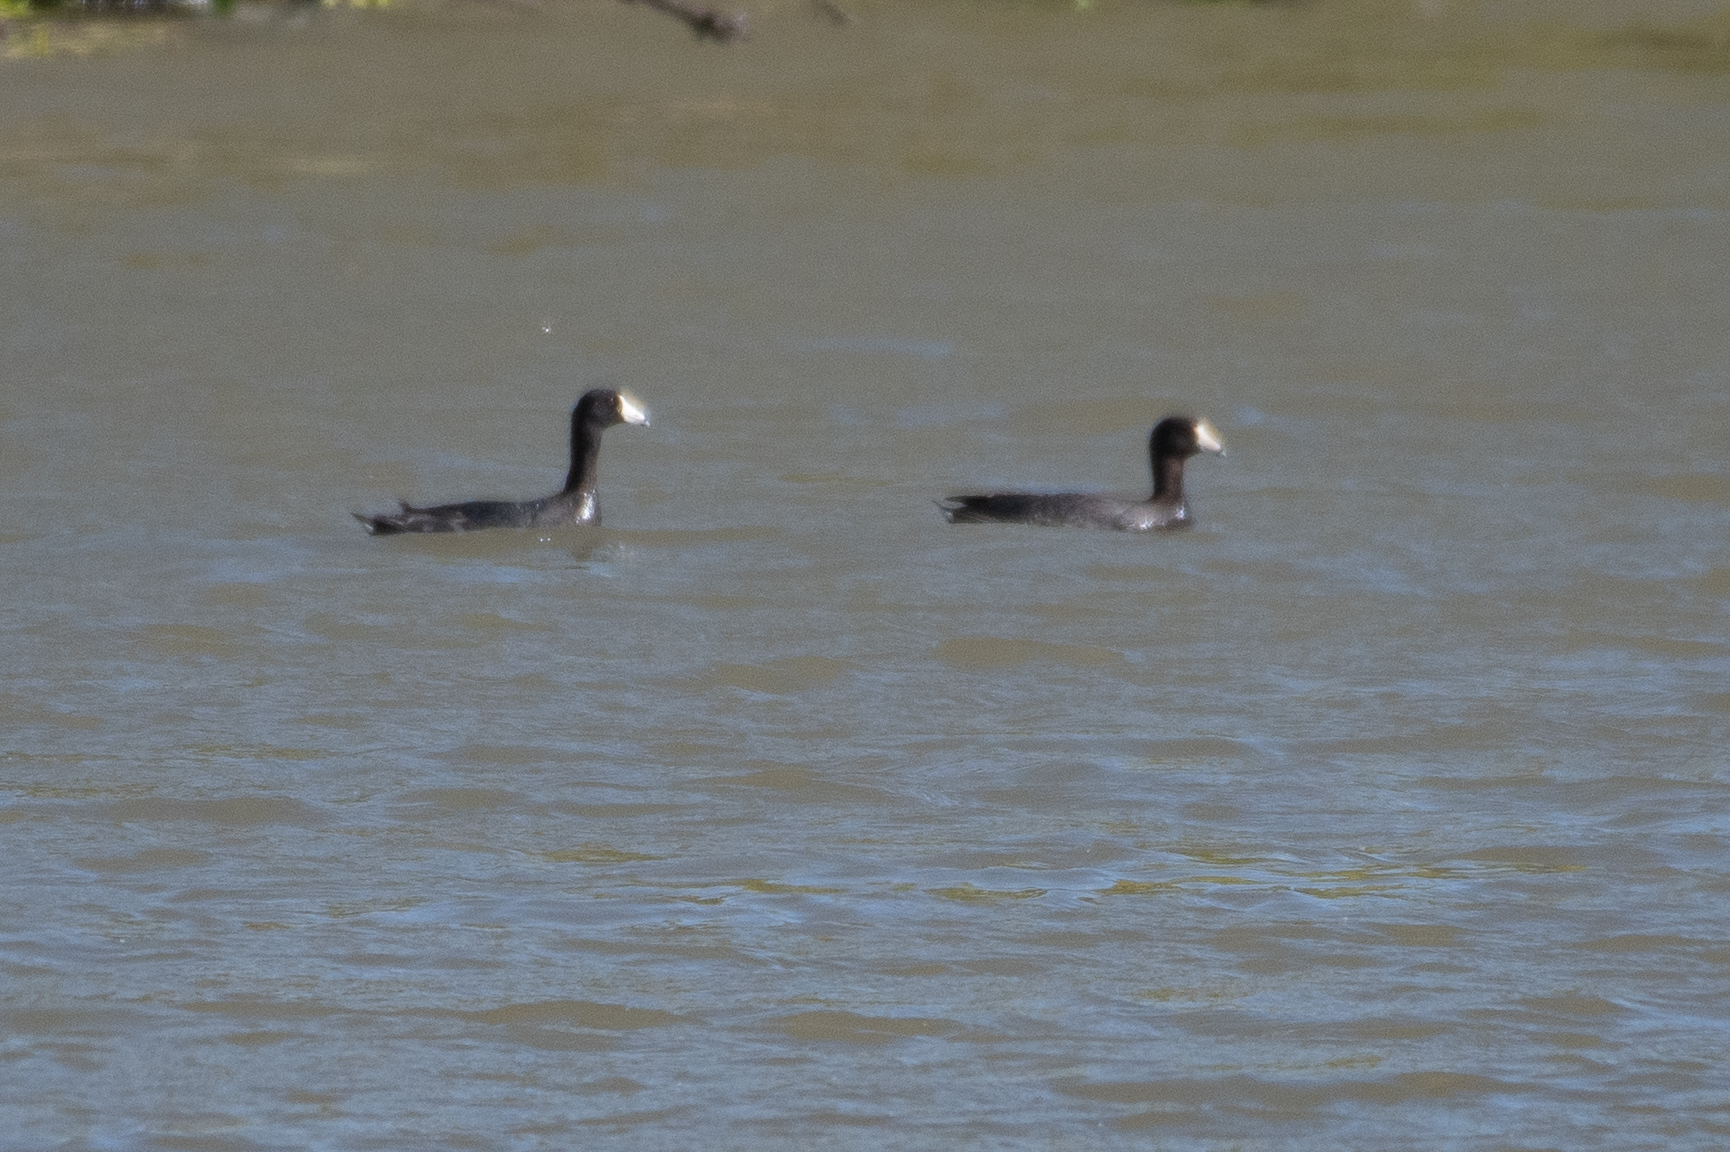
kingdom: Animalia
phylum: Chordata
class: Aves
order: Gruiformes
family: Rallidae
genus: Fulica
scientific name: Fulica americana
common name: American coot
